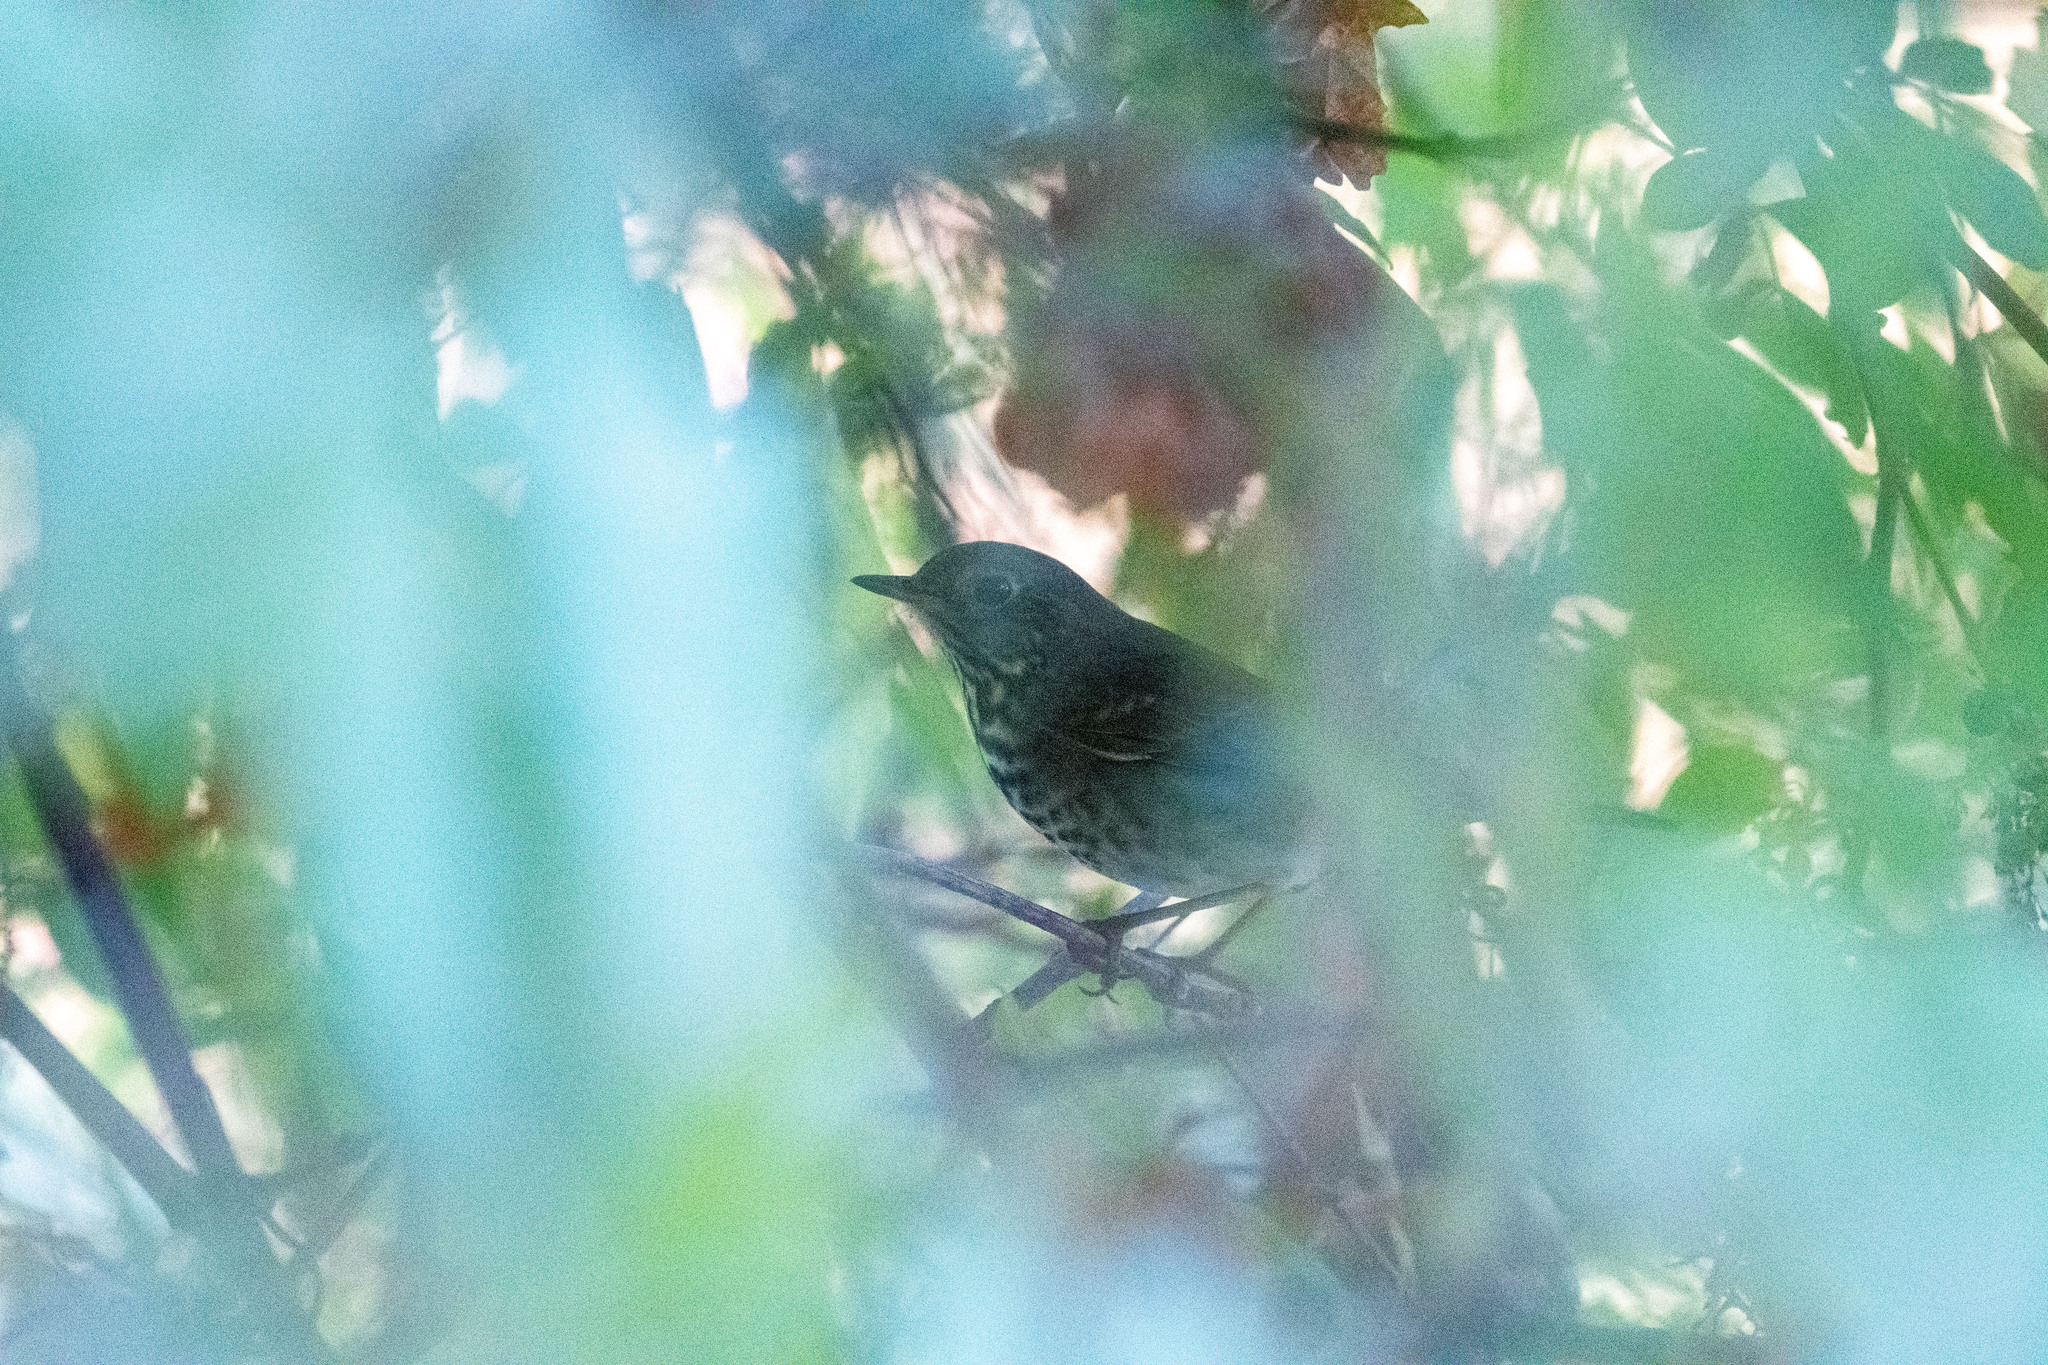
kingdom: Animalia
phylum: Chordata
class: Aves
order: Passeriformes
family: Turdidae
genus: Catharus
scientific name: Catharus guttatus
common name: Hermit thrush
